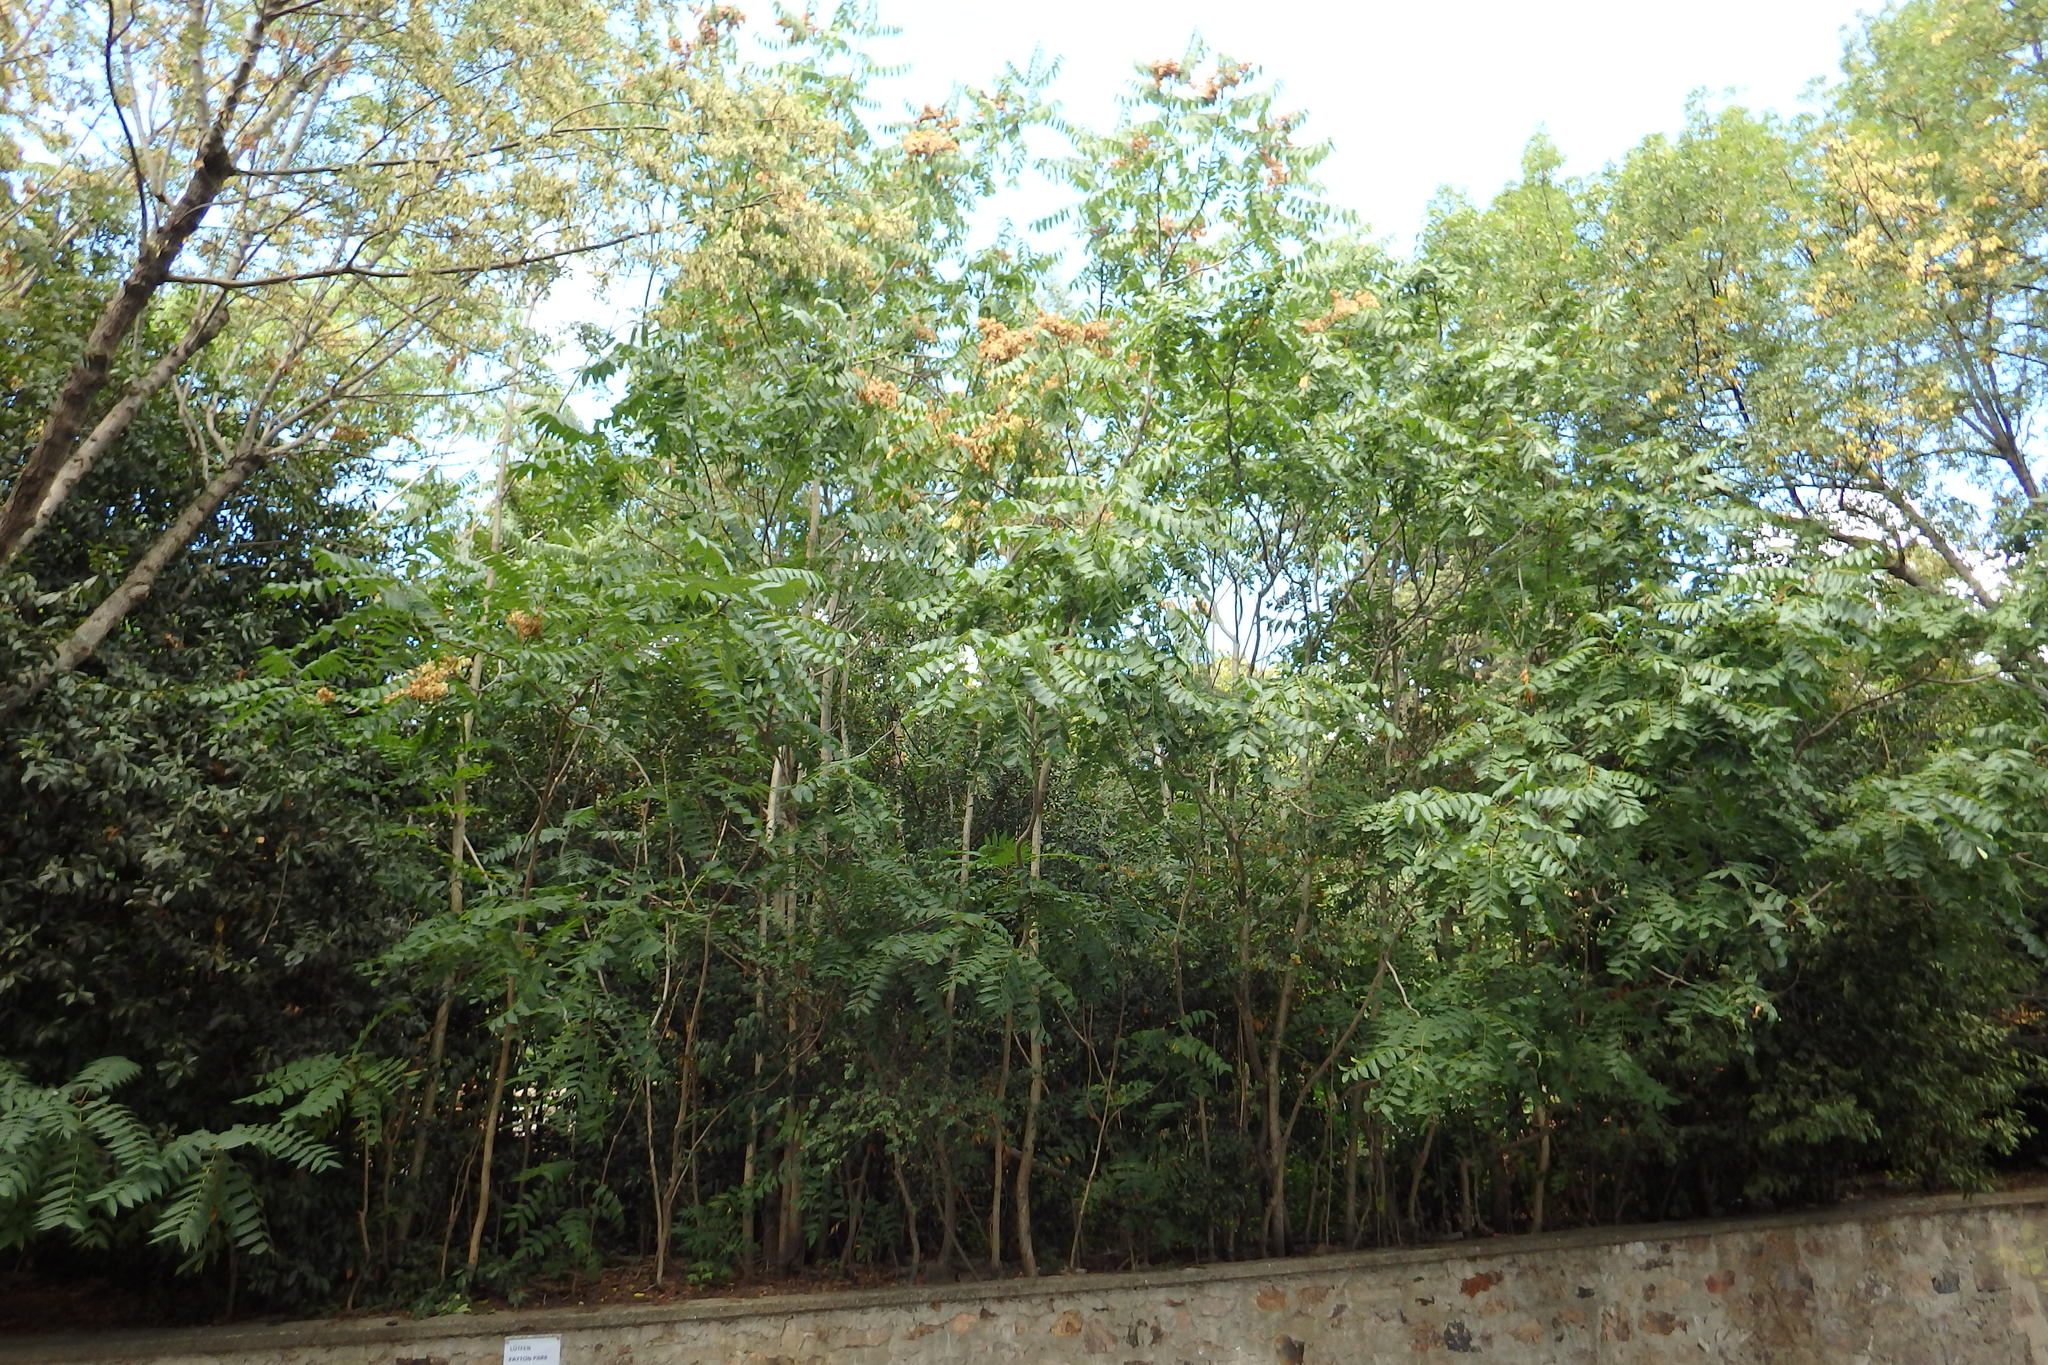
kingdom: Plantae
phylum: Tracheophyta
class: Magnoliopsida
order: Sapindales
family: Simaroubaceae
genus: Ailanthus
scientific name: Ailanthus altissima
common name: Tree-of-heaven
